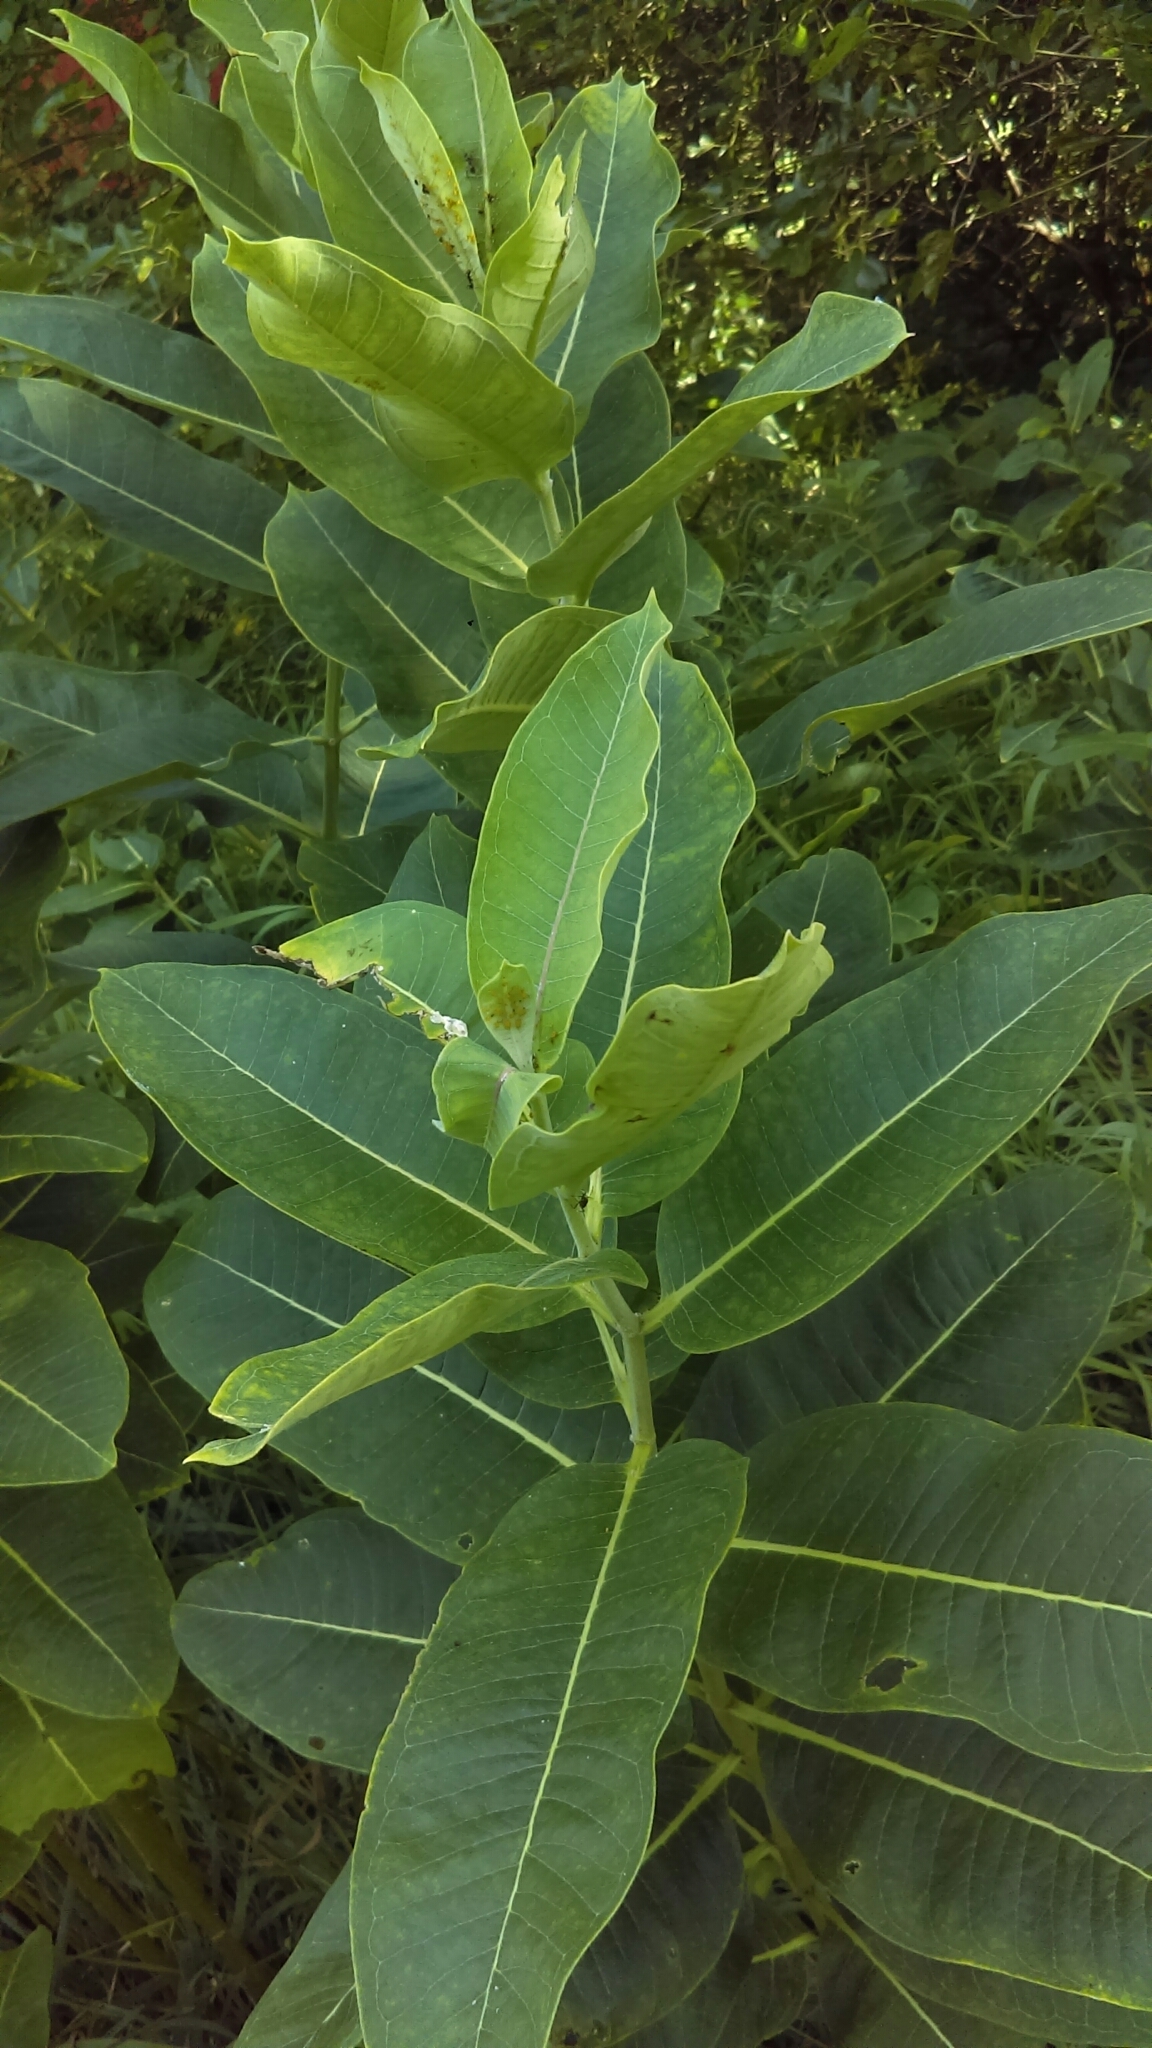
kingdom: Plantae
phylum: Tracheophyta
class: Magnoliopsida
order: Gentianales
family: Apocynaceae
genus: Asclepias
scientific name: Asclepias syriaca
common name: Common milkweed
